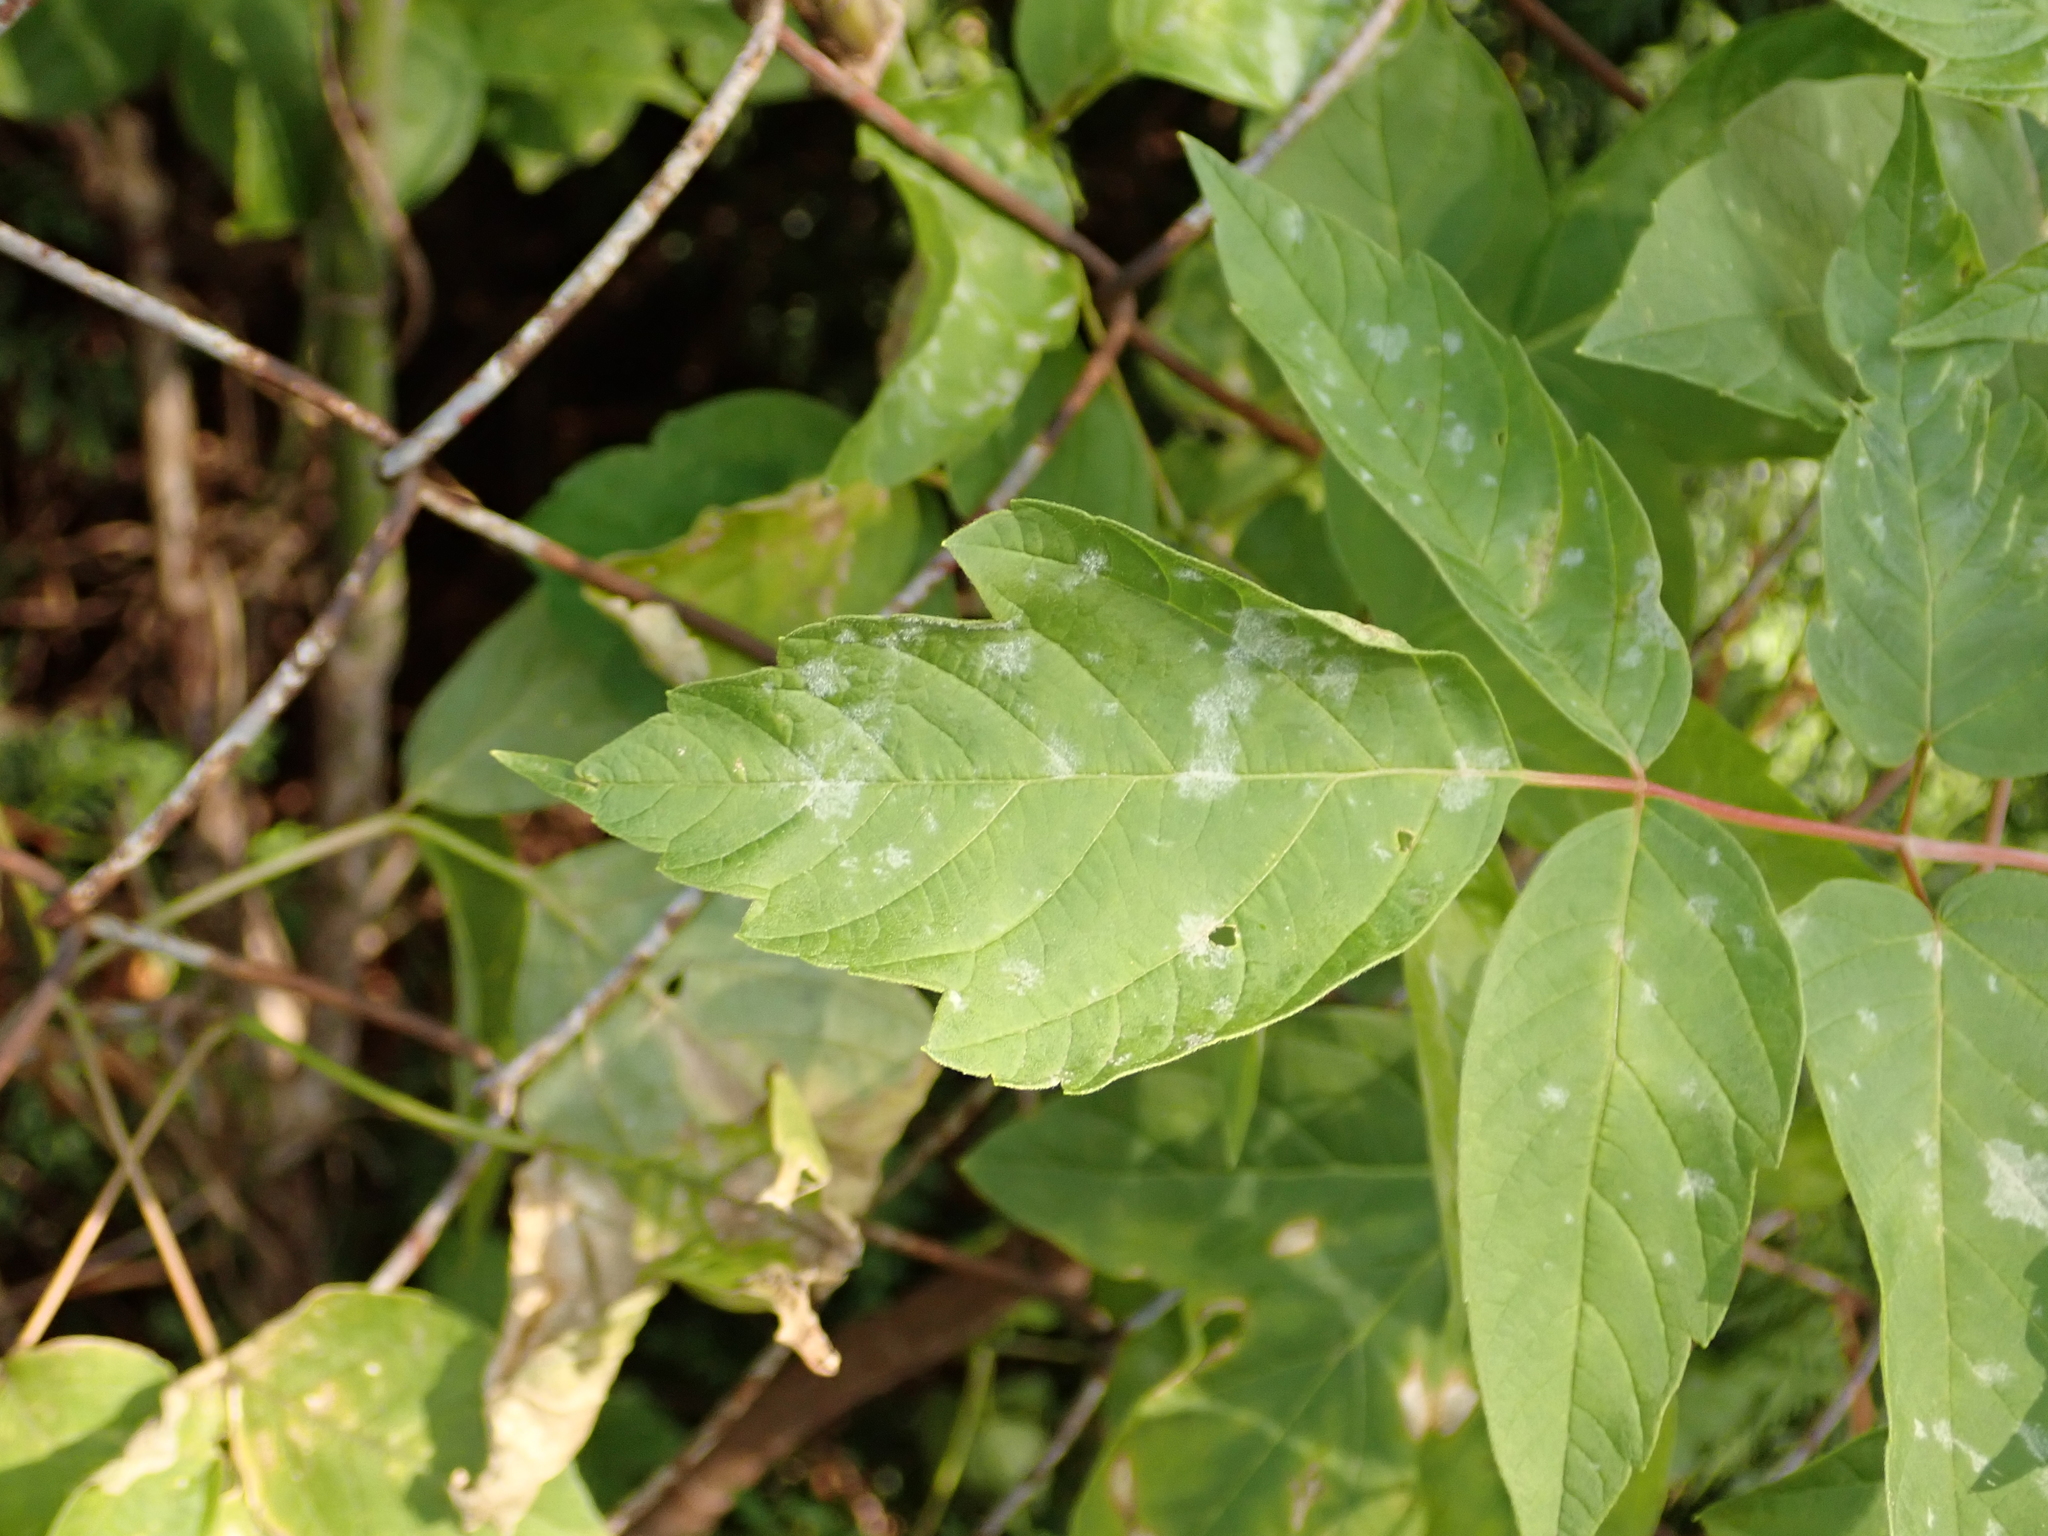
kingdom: Plantae
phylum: Tracheophyta
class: Magnoliopsida
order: Sapindales
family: Sapindaceae
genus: Acer
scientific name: Acer negundo
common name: Ashleaf maple
